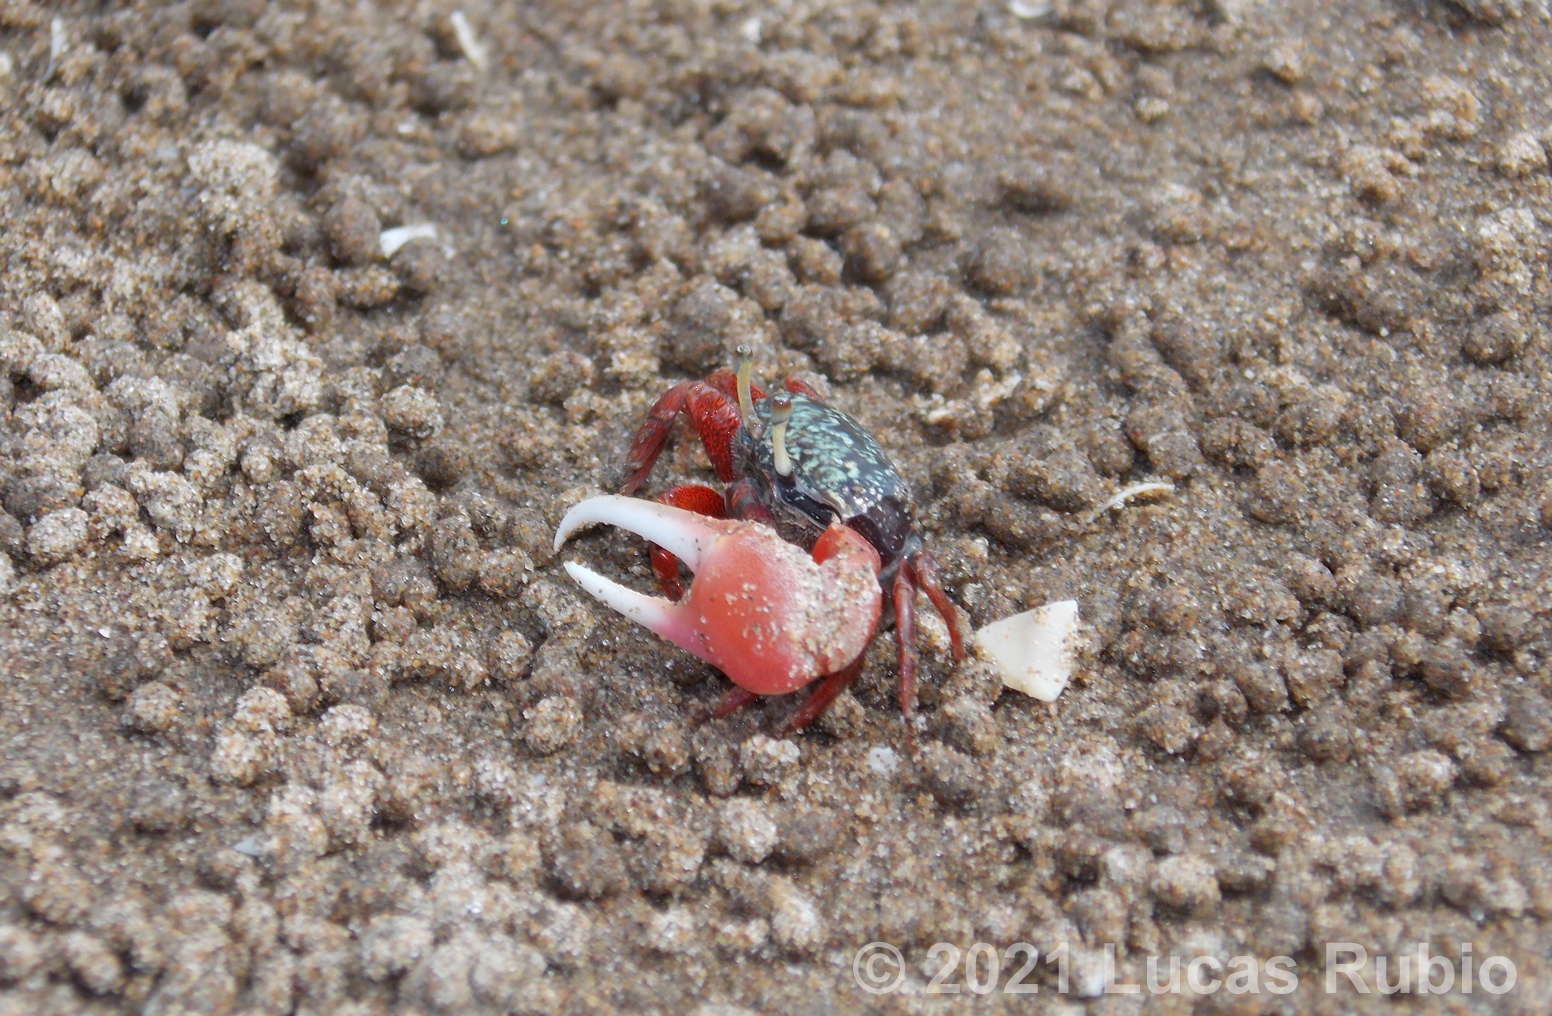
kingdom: Animalia
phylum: Arthropoda
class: Malacostraca
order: Decapoda
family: Ocypodidae
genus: Leptuca
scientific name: Leptuca uruguayensis
